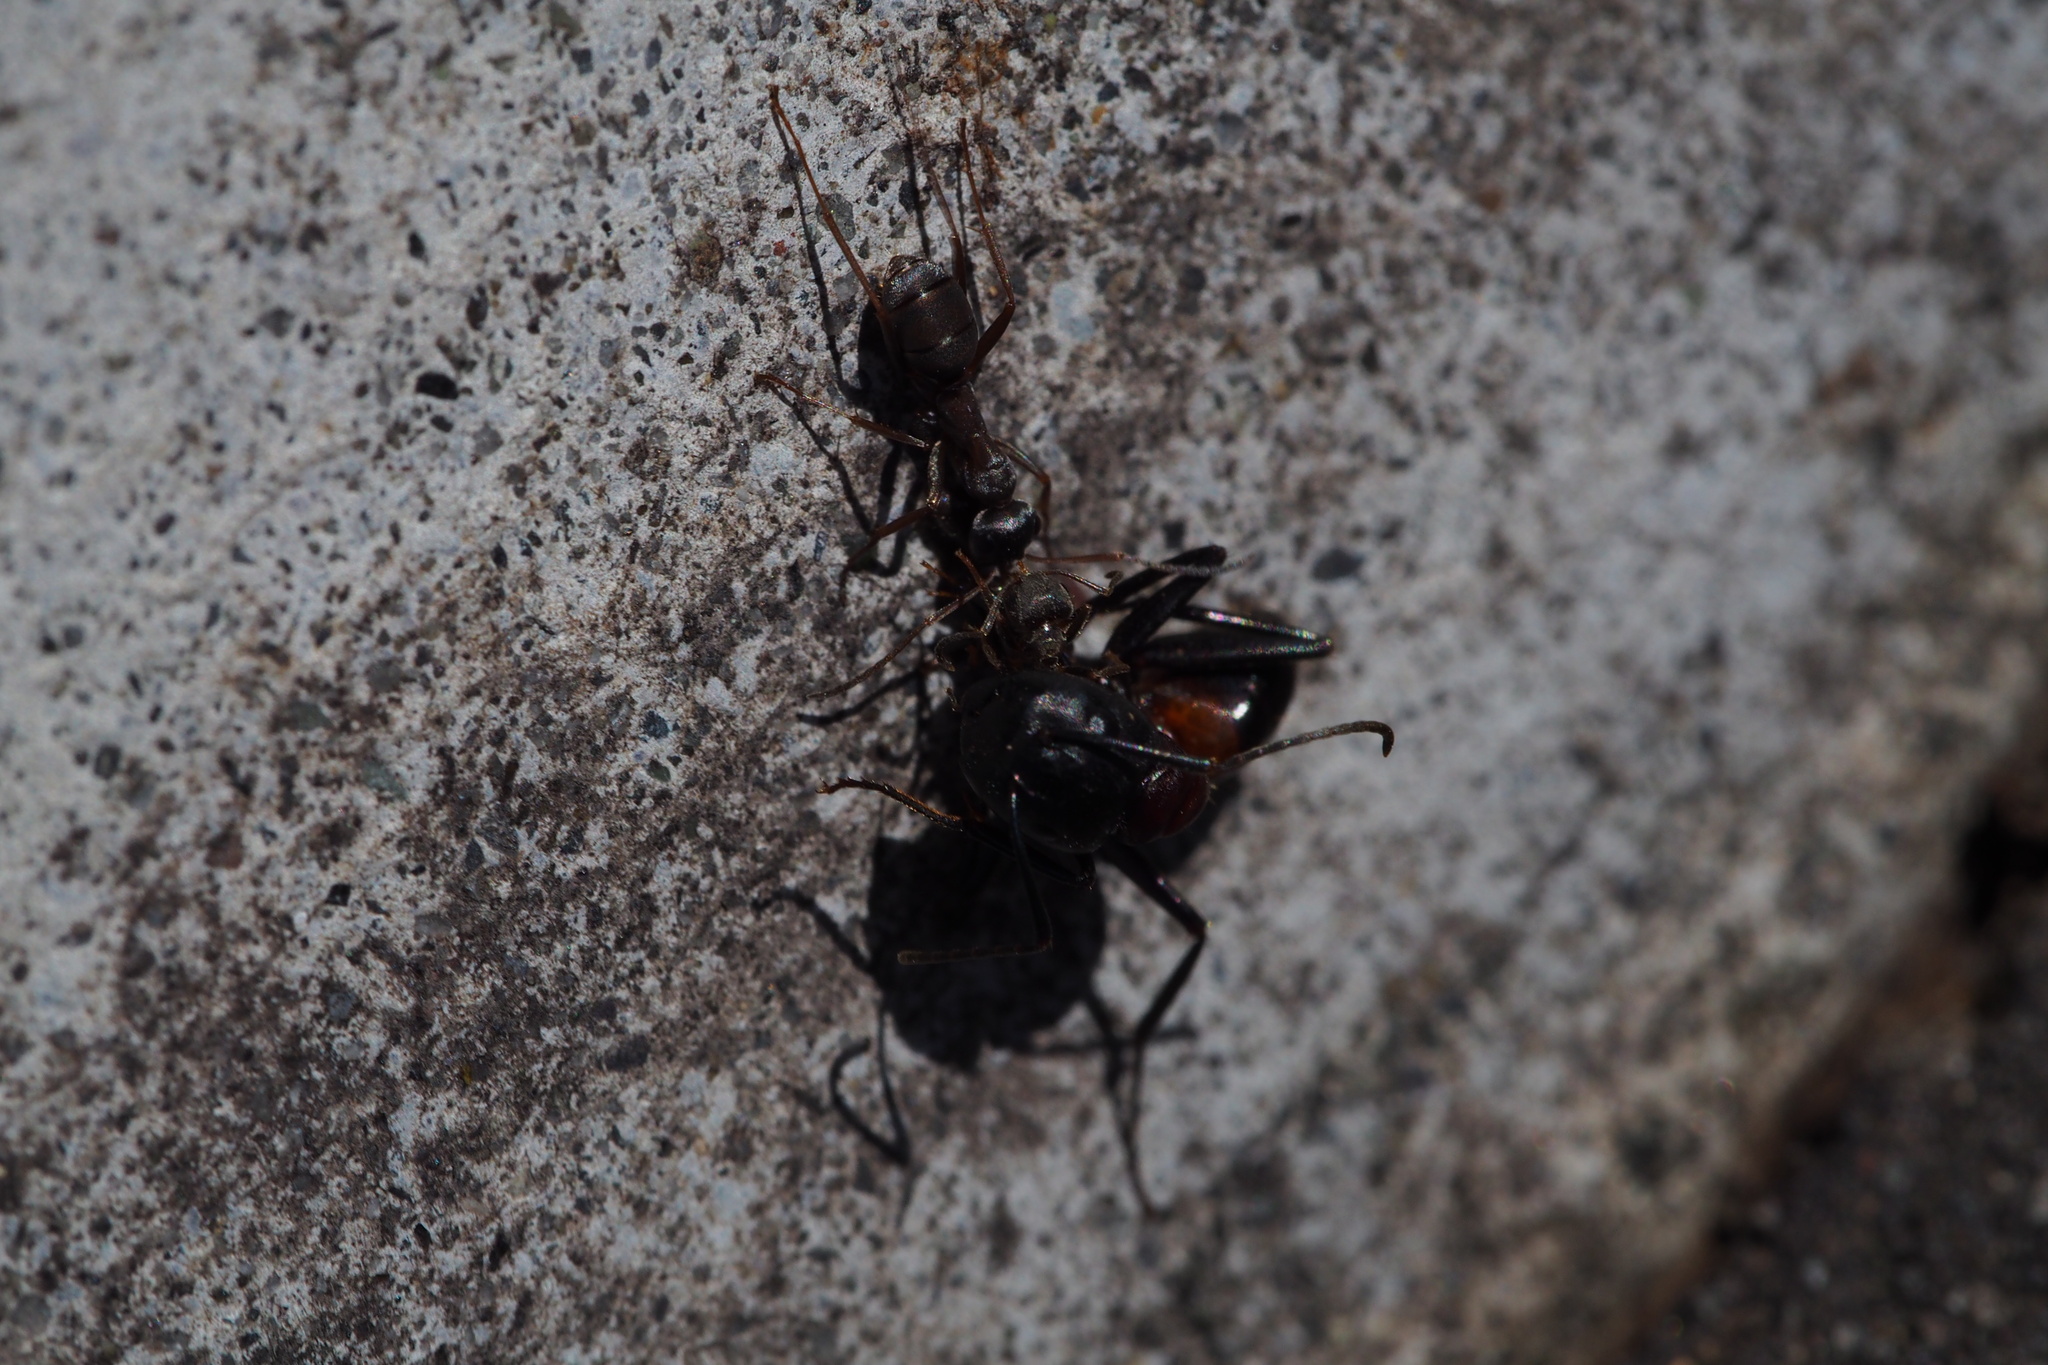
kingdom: Animalia
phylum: Arthropoda
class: Insecta
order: Hymenoptera
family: Formicidae
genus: Formica
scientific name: Formica hayashi
